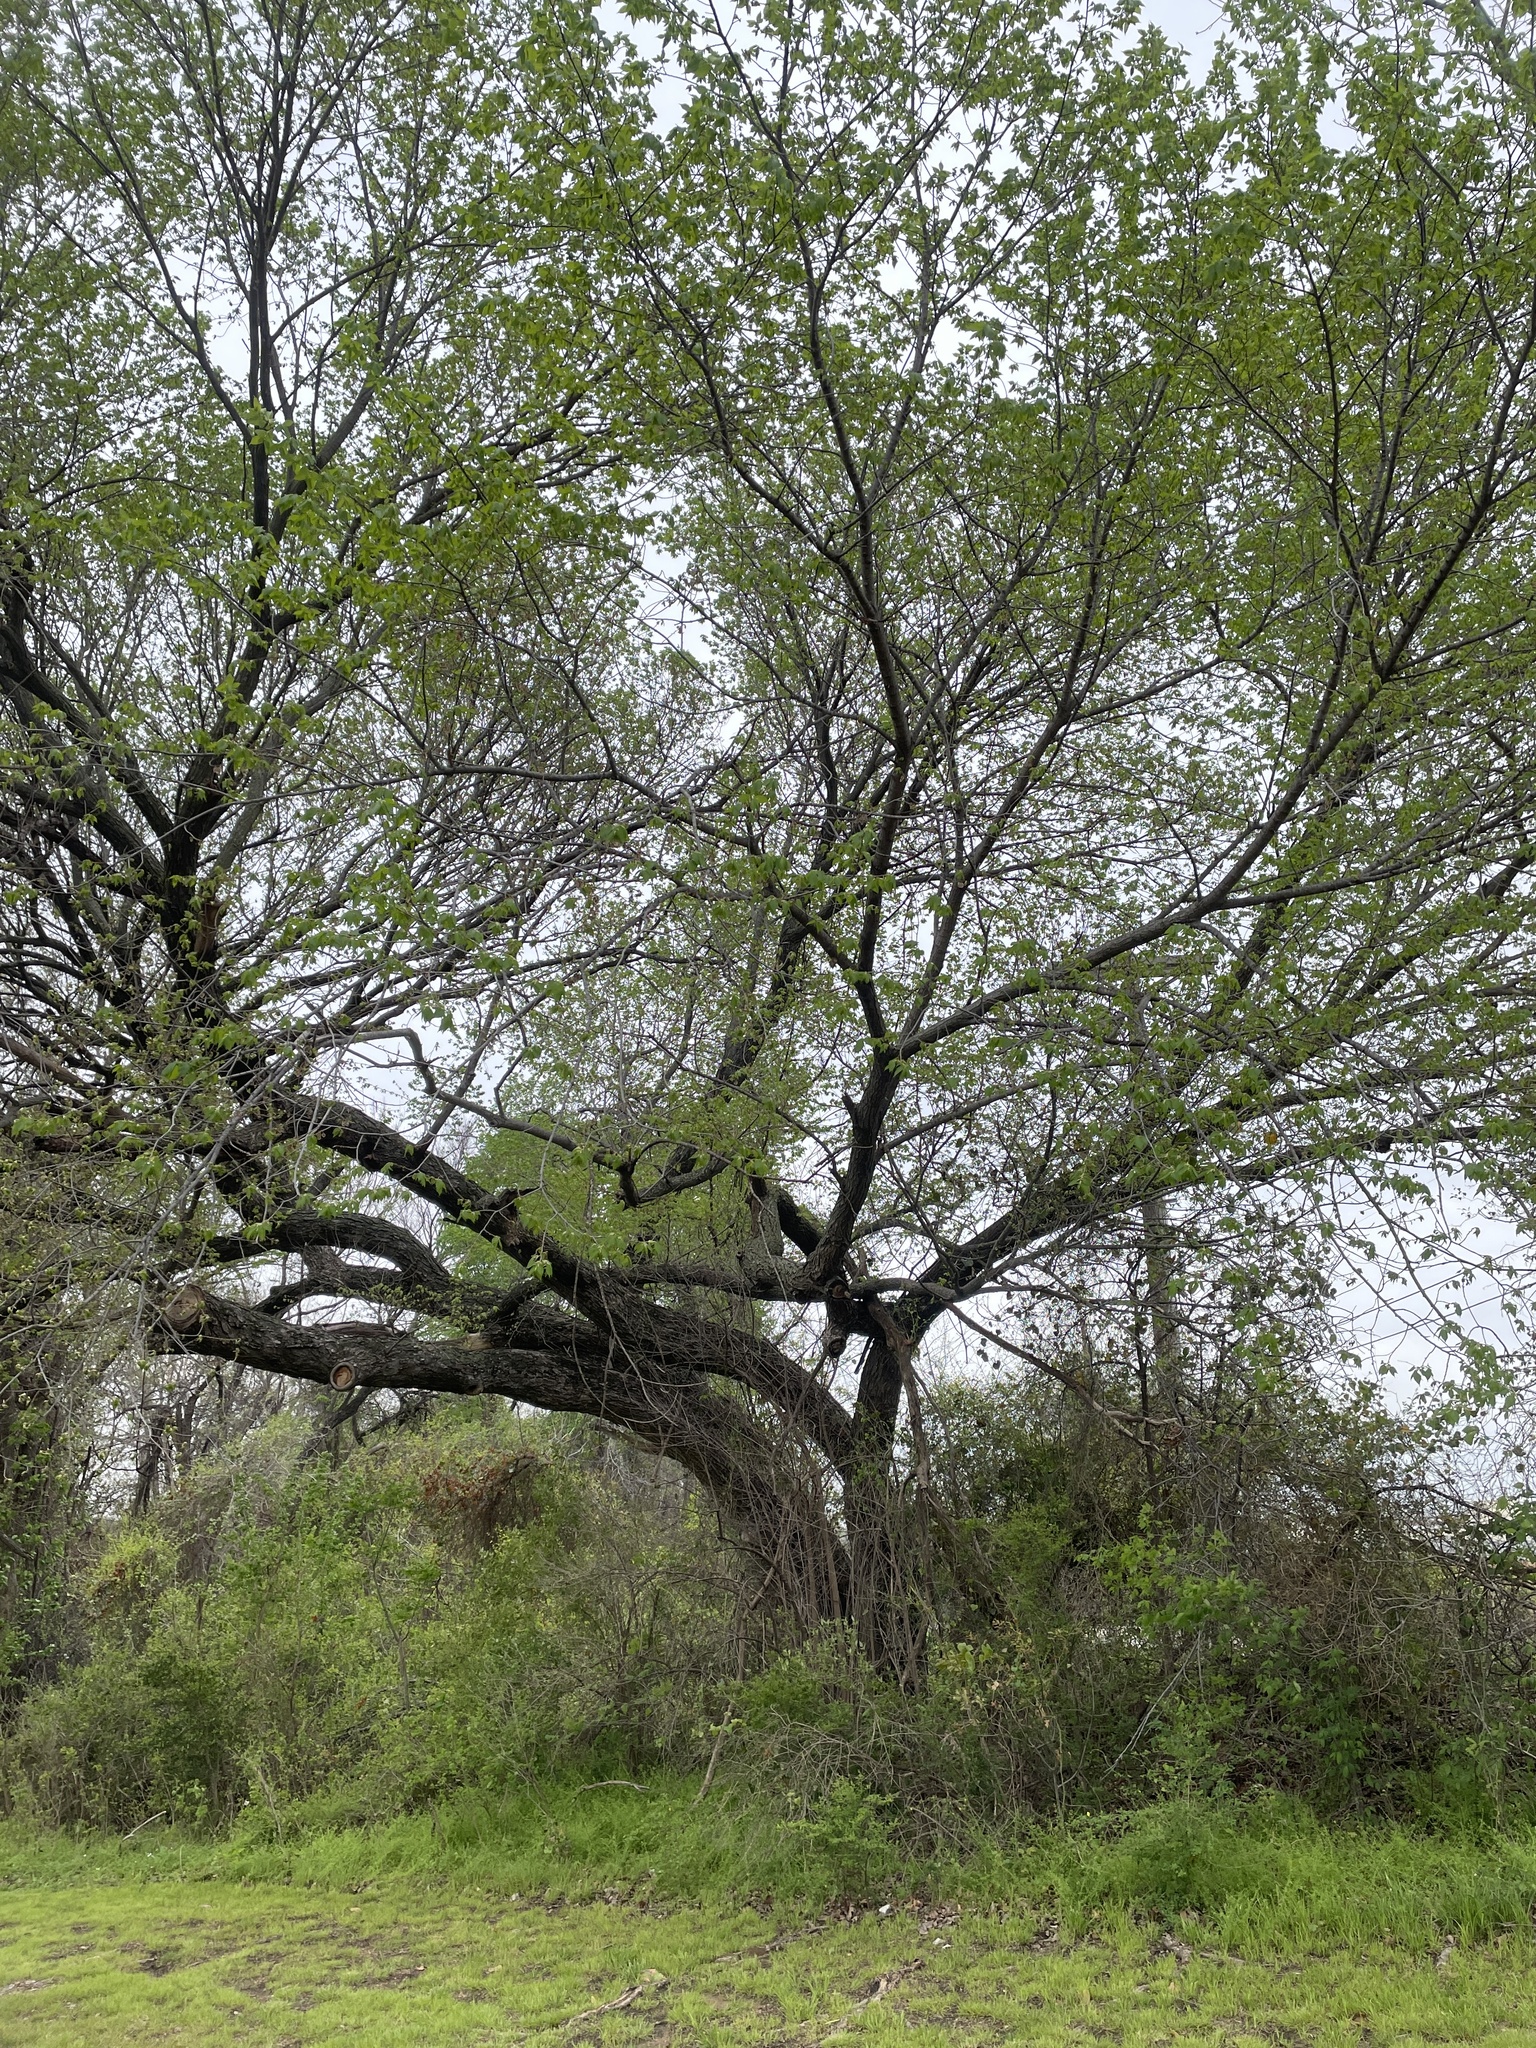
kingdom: Plantae
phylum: Tracheophyta
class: Magnoliopsida
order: Rosales
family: Ulmaceae
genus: Ulmus
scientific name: Ulmus americana
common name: American elm
